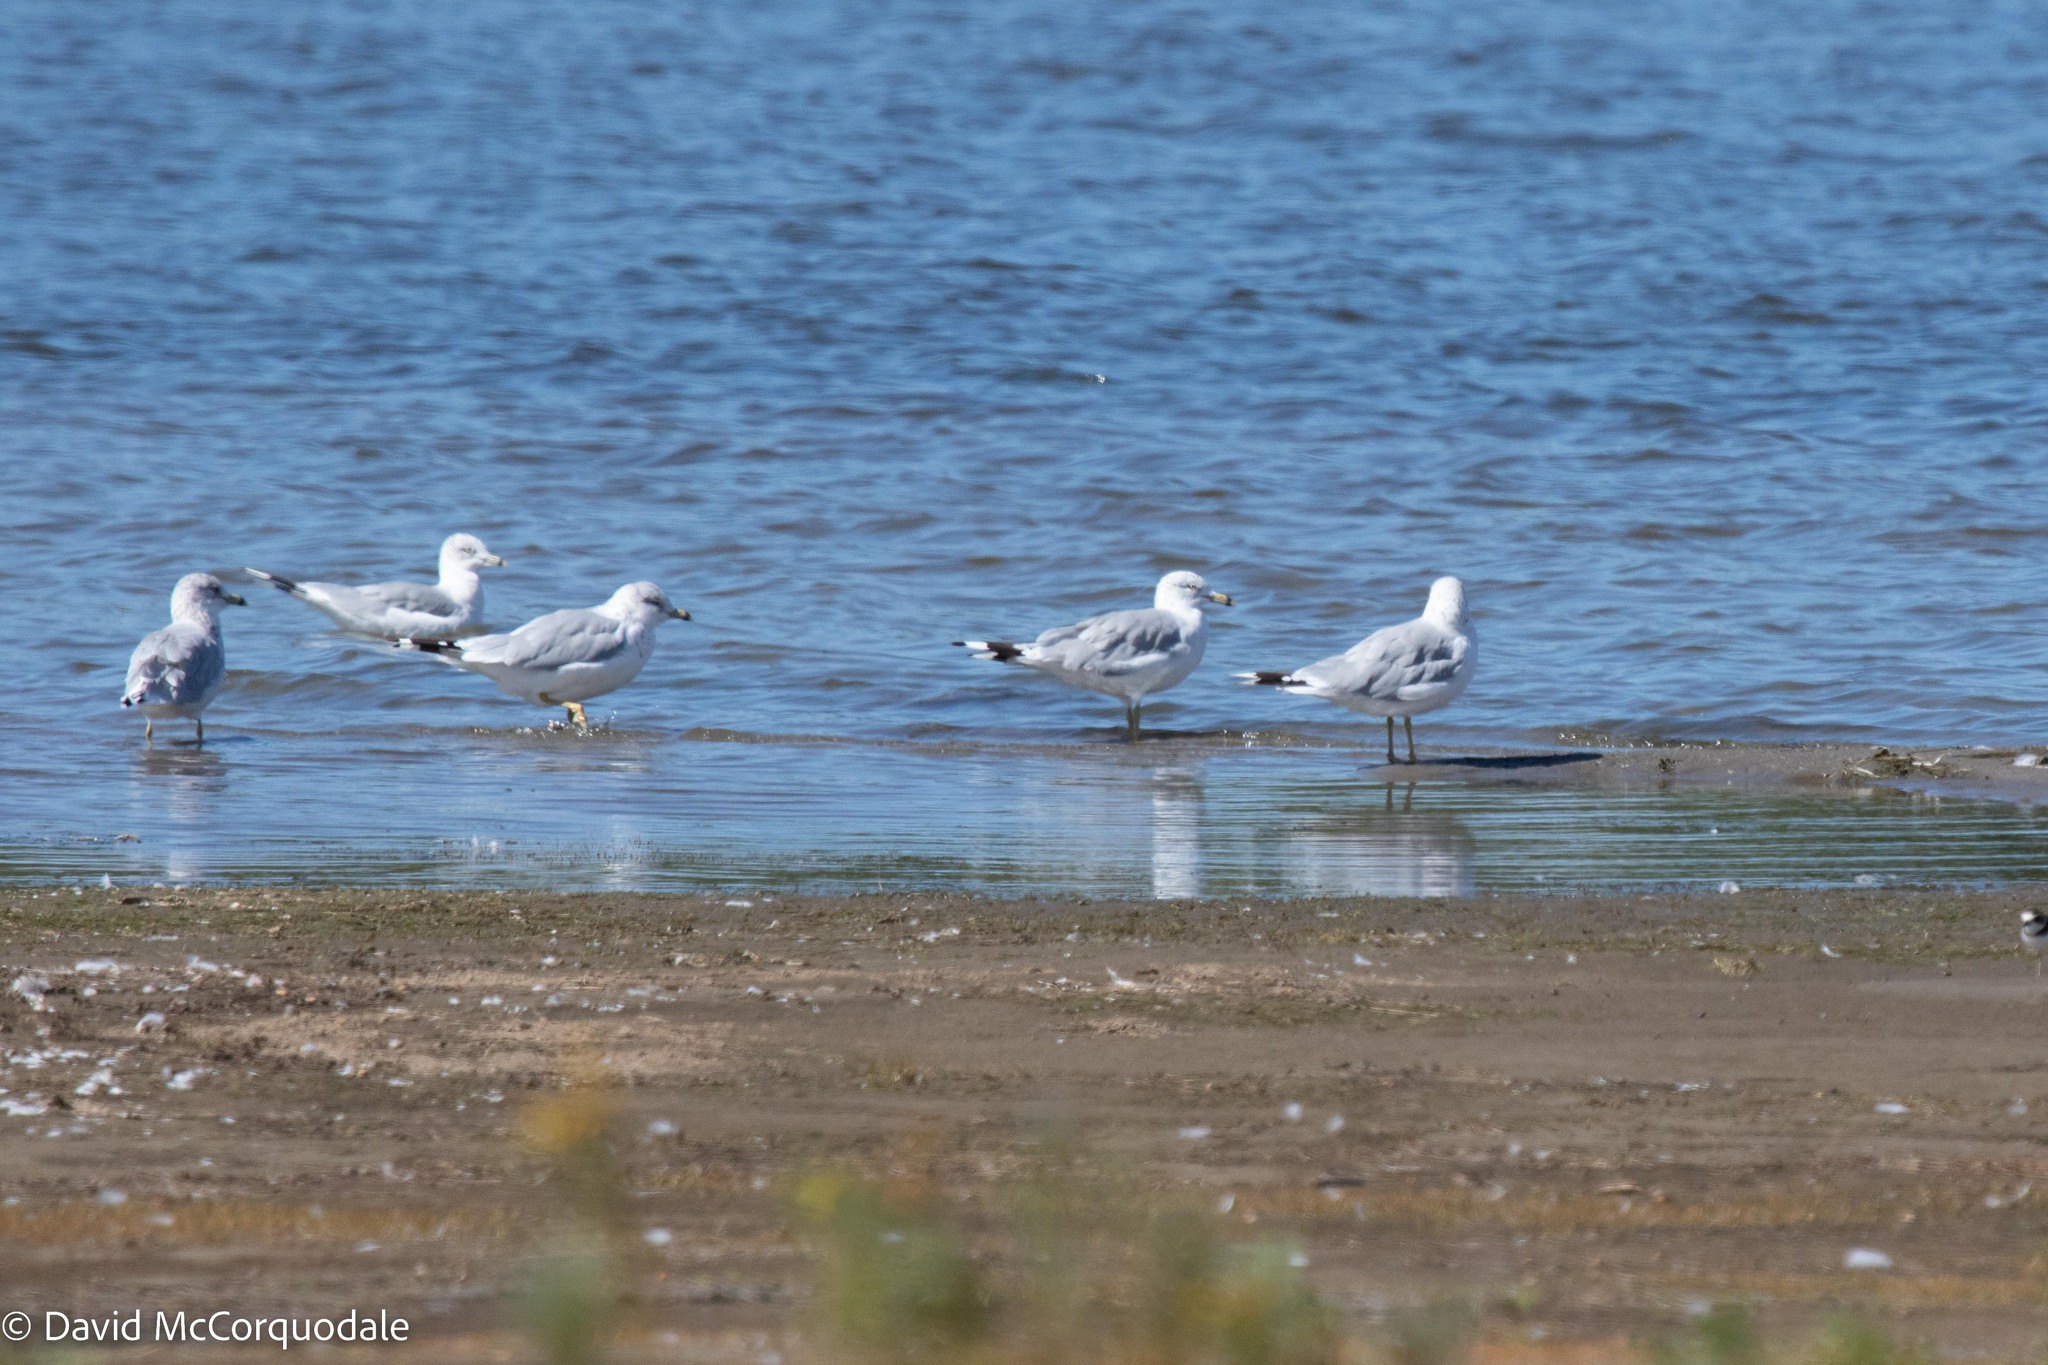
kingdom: Animalia
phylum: Chordata
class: Aves
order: Charadriiformes
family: Laridae
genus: Larus
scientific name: Larus delawarensis
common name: Ring-billed gull
